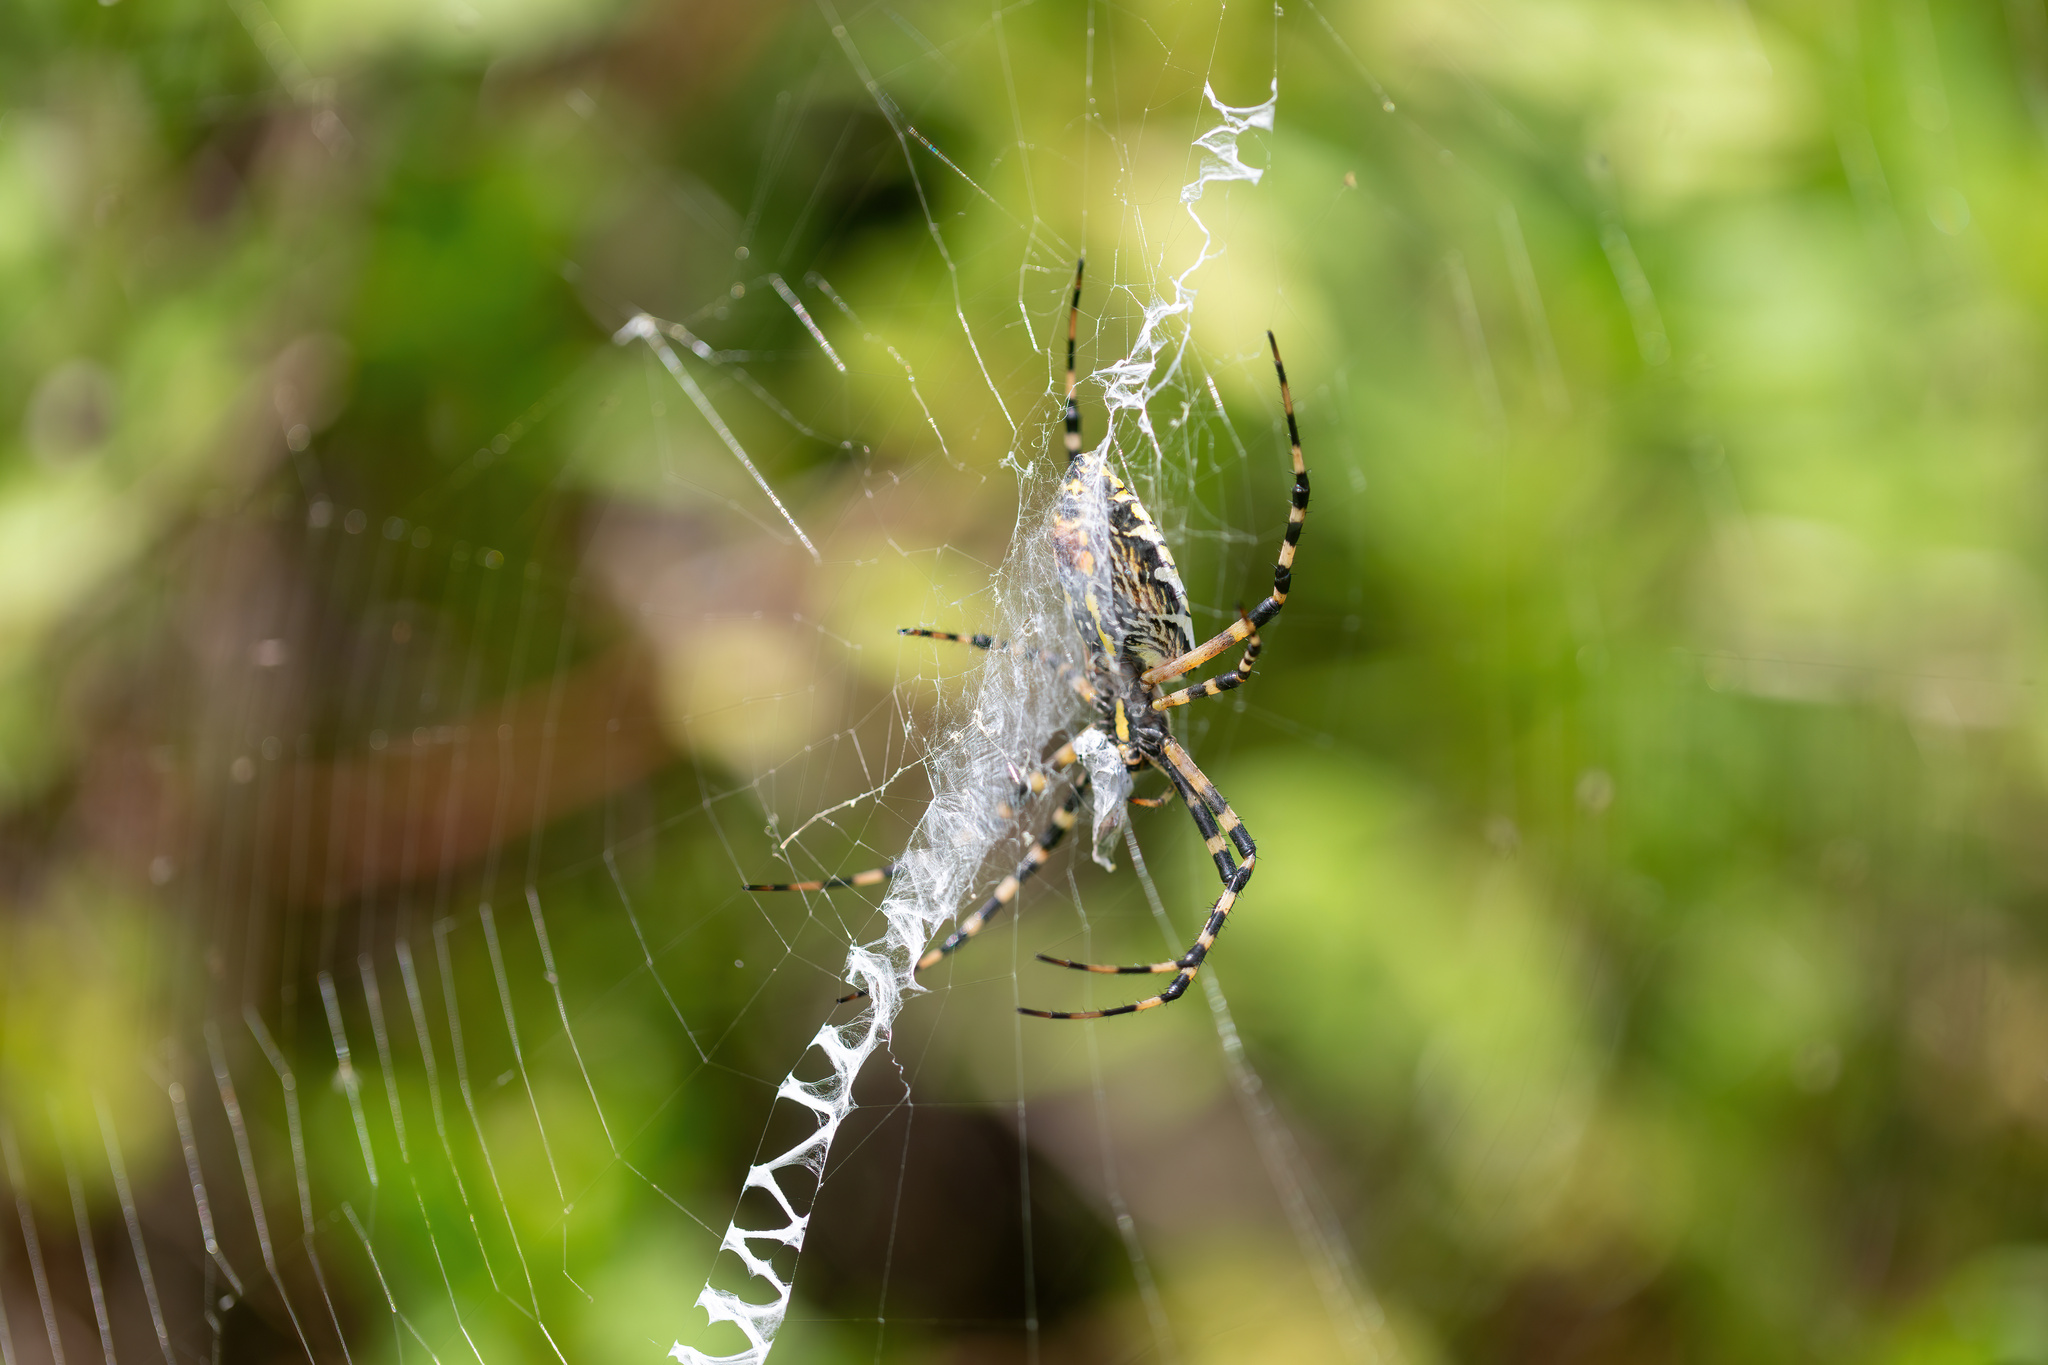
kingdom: Animalia
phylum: Arthropoda
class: Arachnida
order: Araneae
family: Araneidae
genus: Argiope
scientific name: Argiope aurantia
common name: Orb weavers
